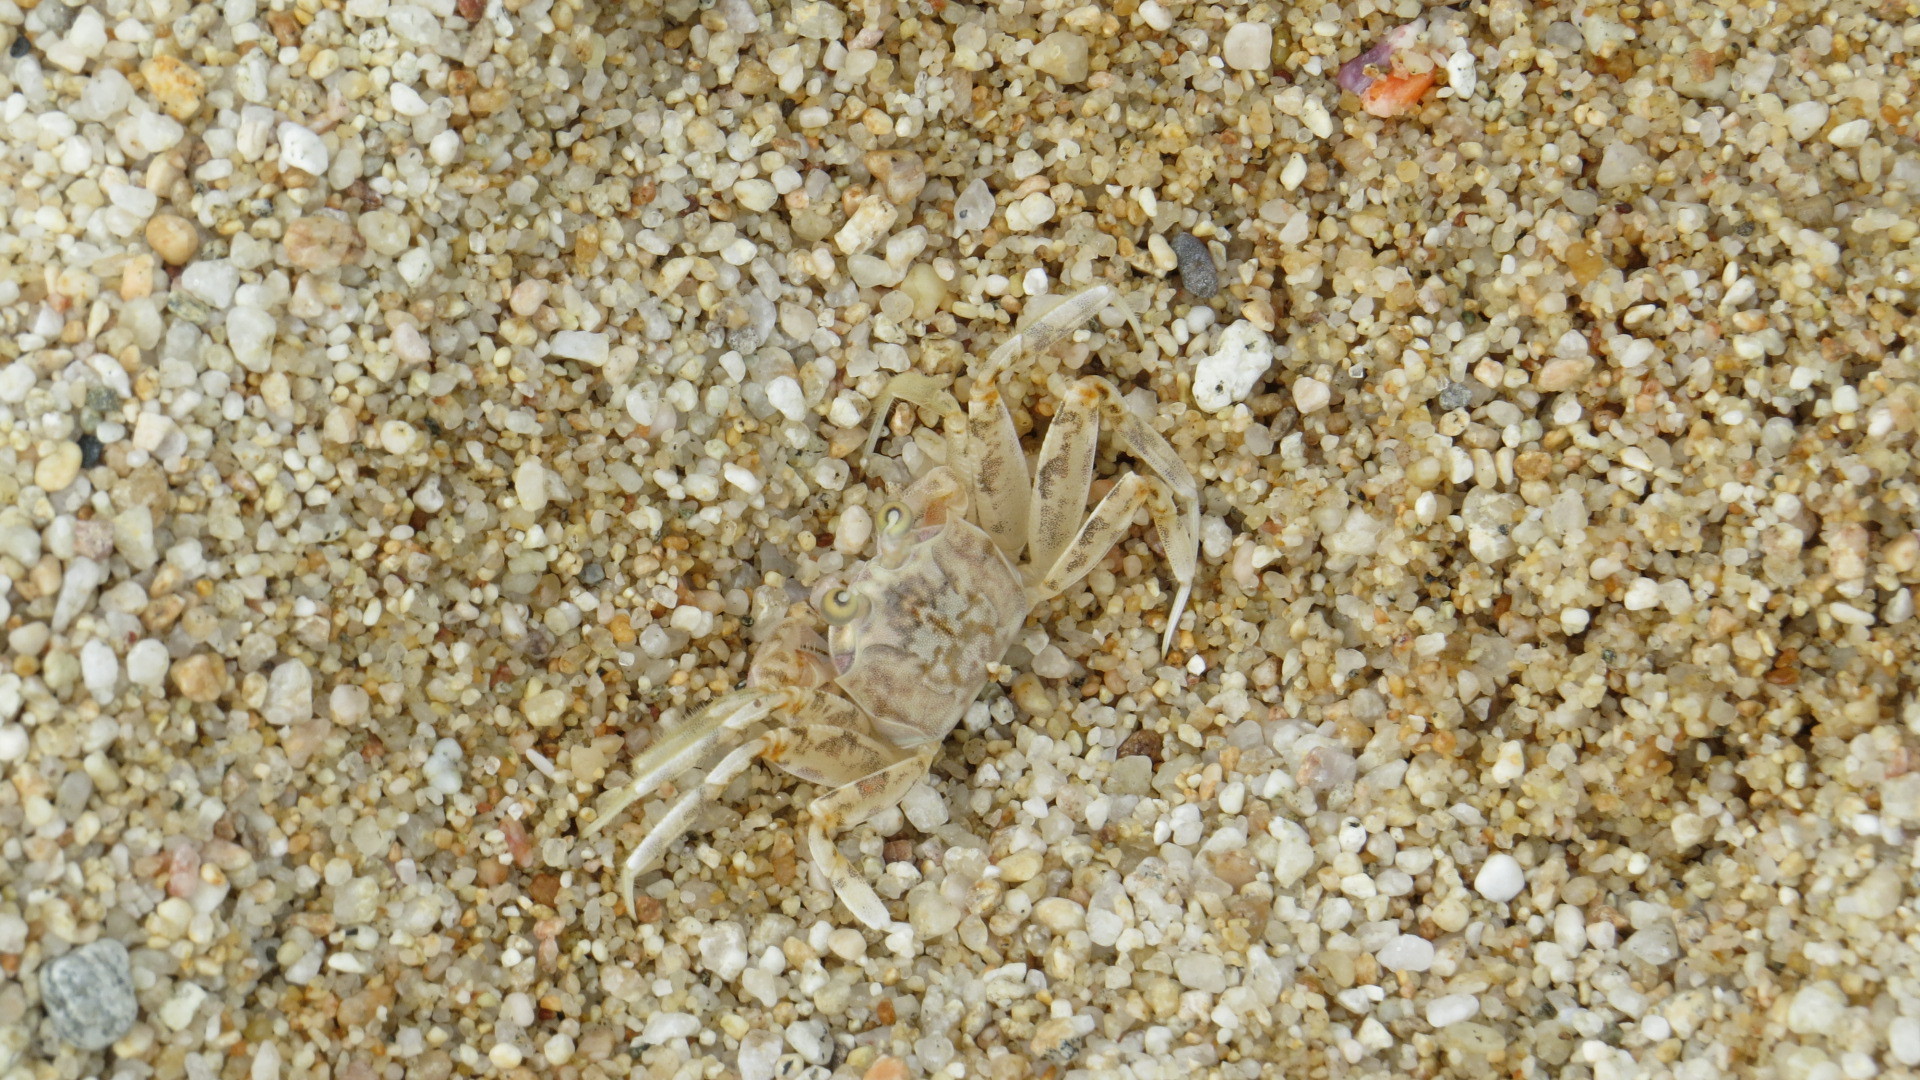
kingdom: Animalia
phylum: Arthropoda
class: Malacostraca
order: Decapoda
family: Ocypodidae
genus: Ocypode
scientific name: Ocypode occidentalis
